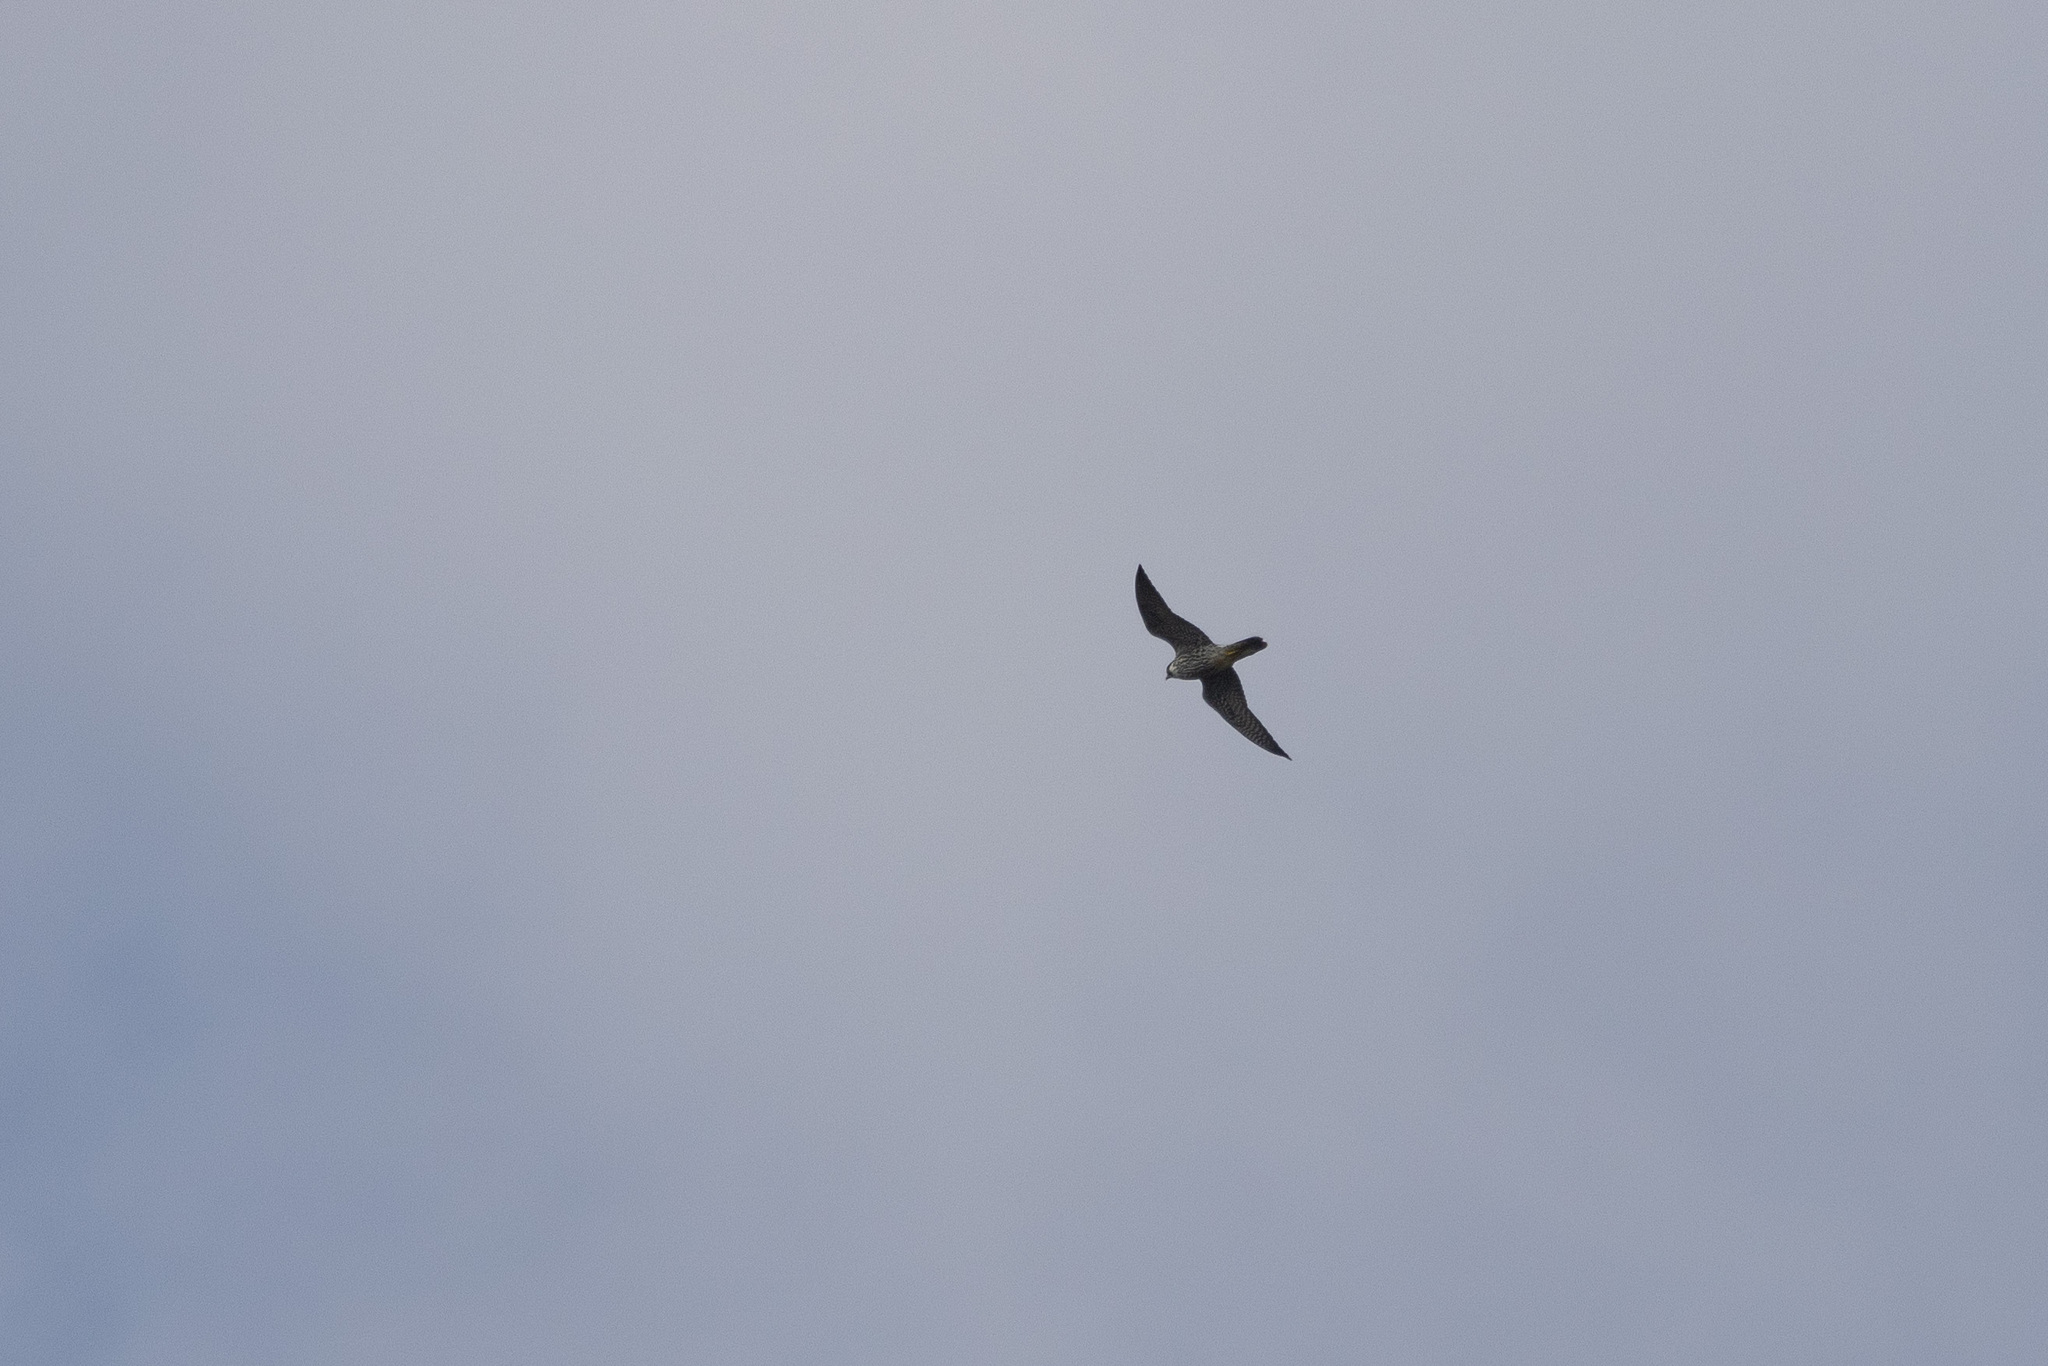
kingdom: Animalia
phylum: Chordata
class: Aves
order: Falconiformes
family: Falconidae
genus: Falco
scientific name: Falco peregrinus
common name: Peregrine falcon
